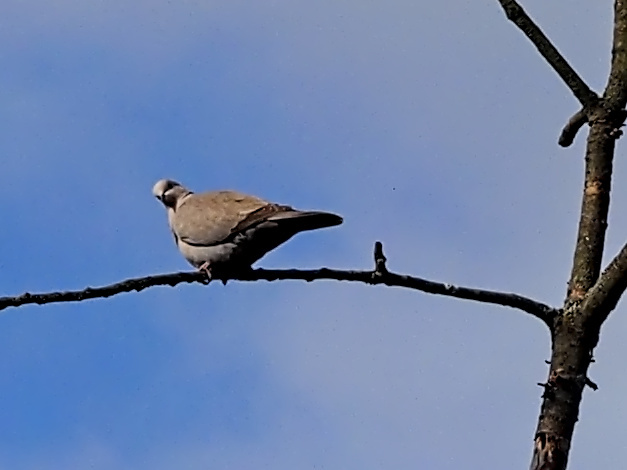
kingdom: Animalia
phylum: Chordata
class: Aves
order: Columbiformes
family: Columbidae
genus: Streptopelia
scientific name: Streptopelia decaocto
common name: Eurasian collared dove
